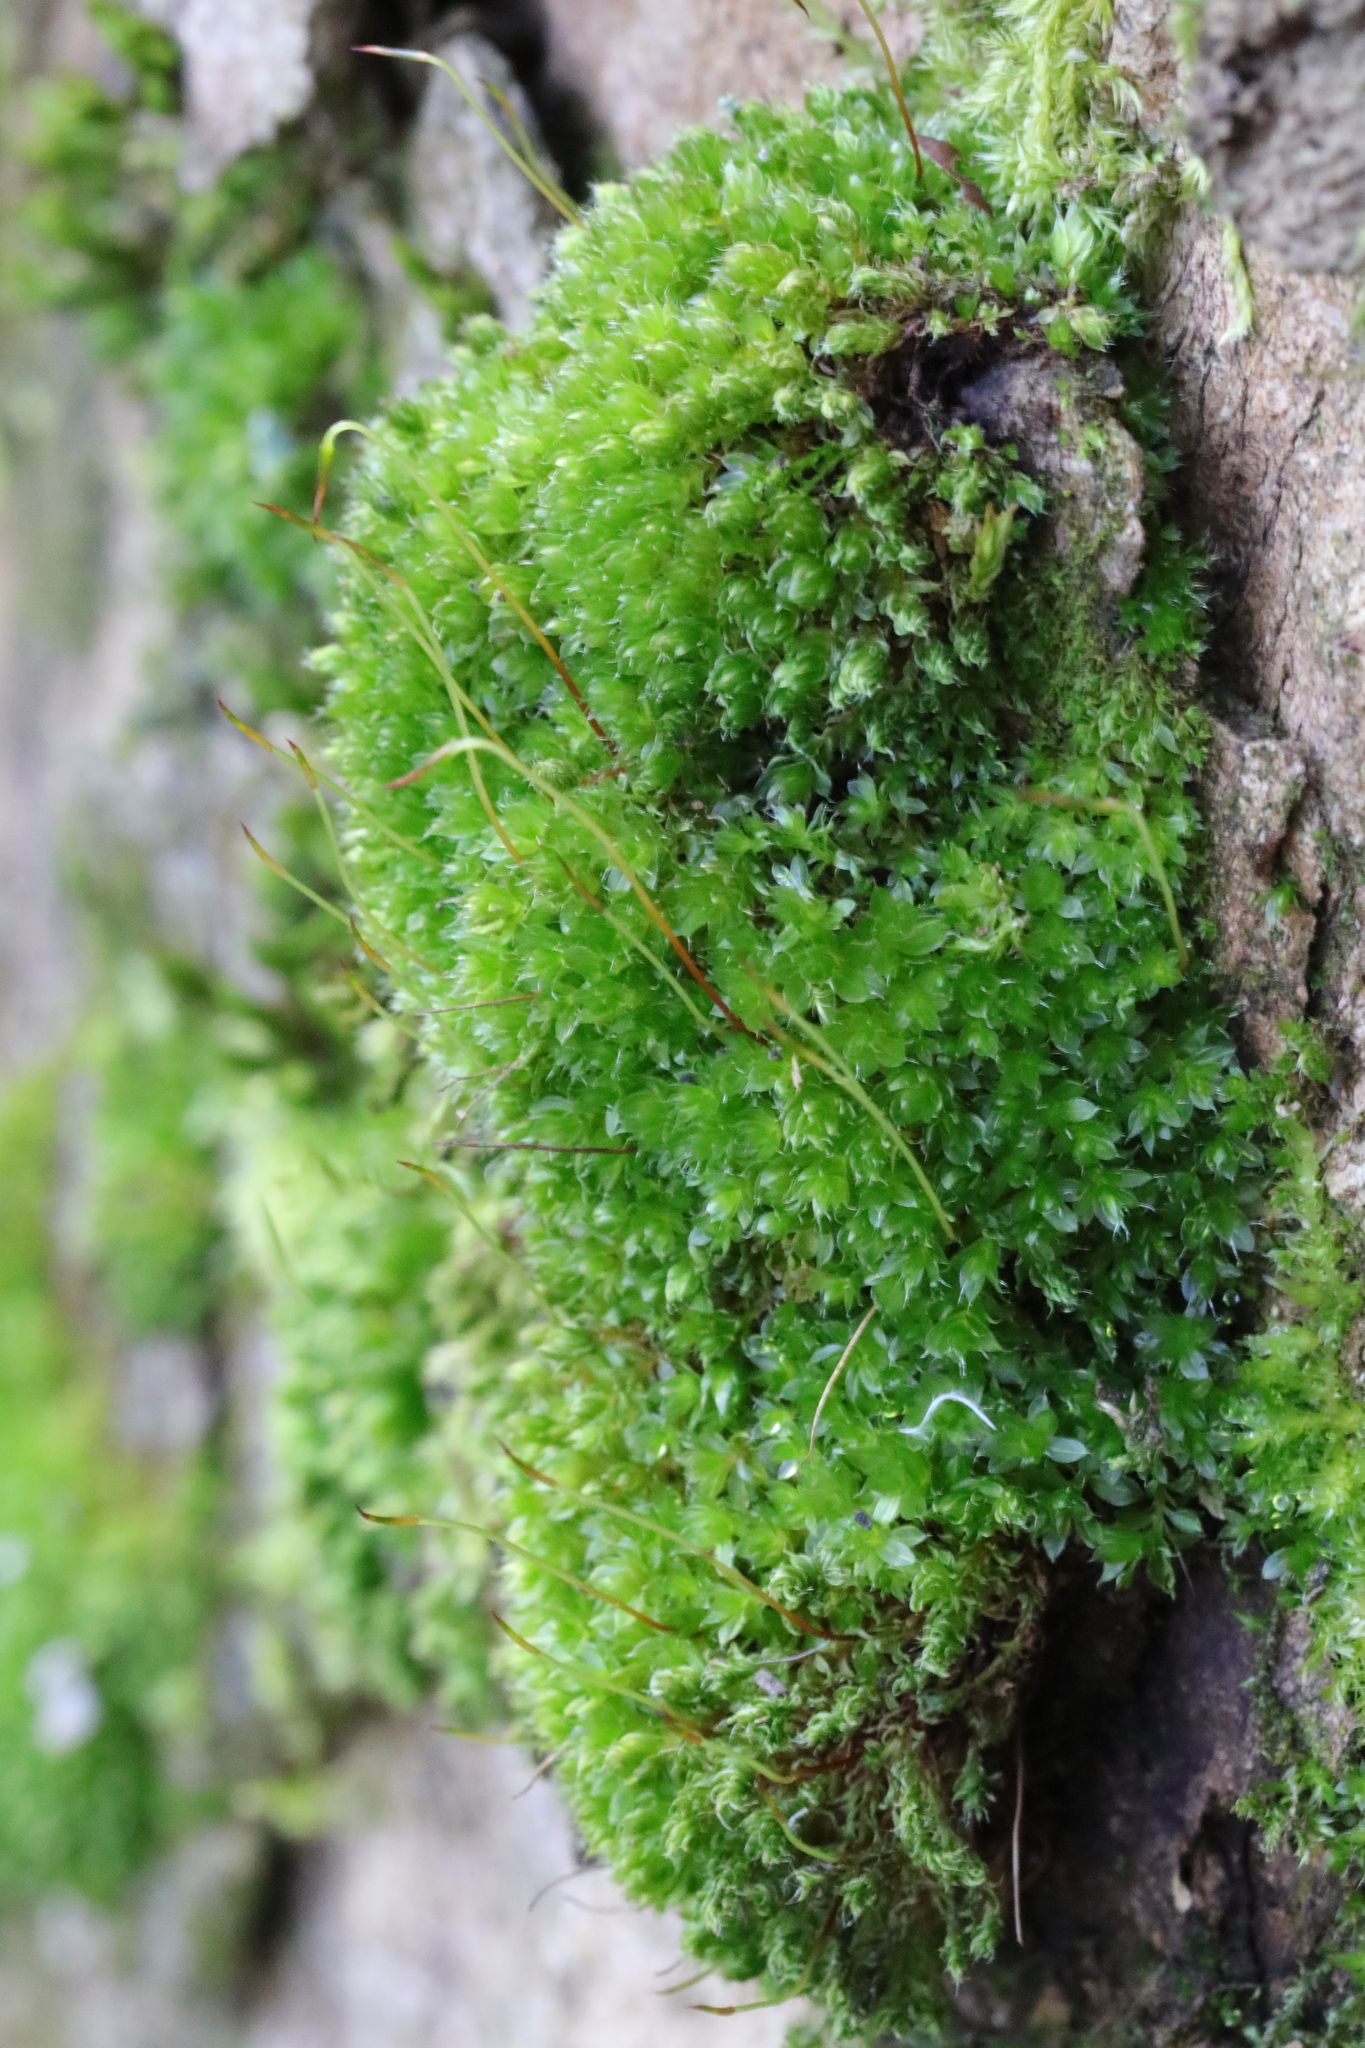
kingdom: Plantae
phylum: Bryophyta
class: Bryopsida
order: Bryales
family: Bryaceae
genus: Rosulabryum
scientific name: Rosulabryum capillare
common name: Capillary thread-moss
